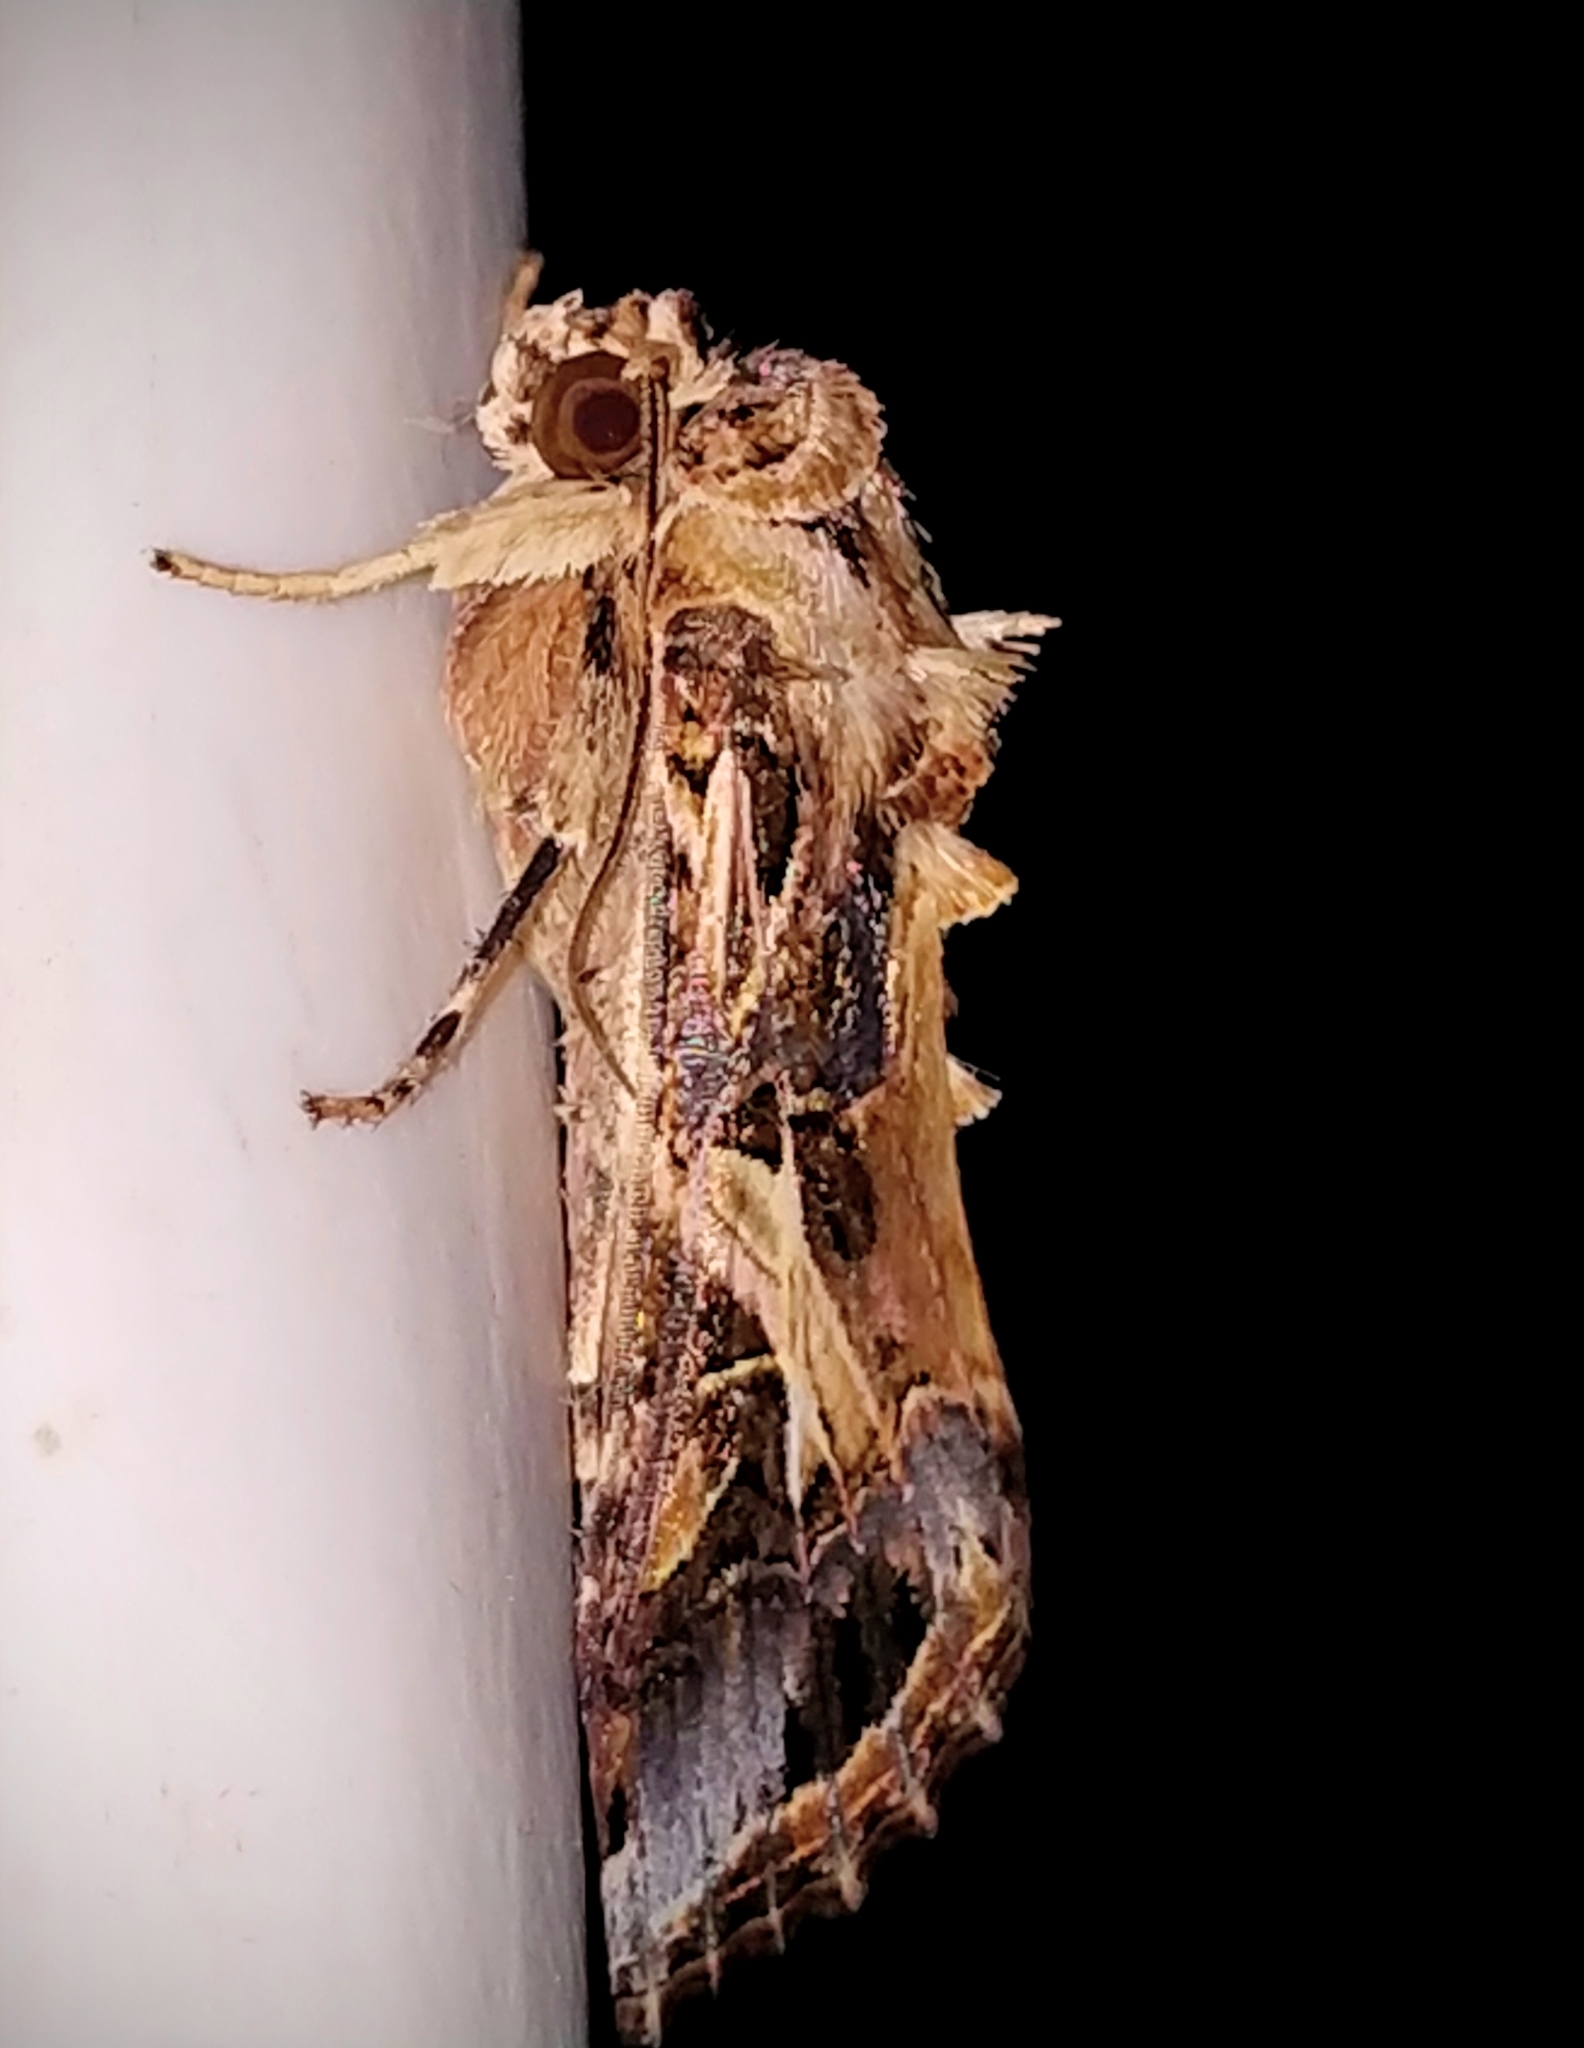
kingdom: Animalia
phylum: Arthropoda
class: Insecta
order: Lepidoptera
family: Noctuidae
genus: Spodoptera
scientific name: Spodoptera litura
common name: Asian cotton leafworm
